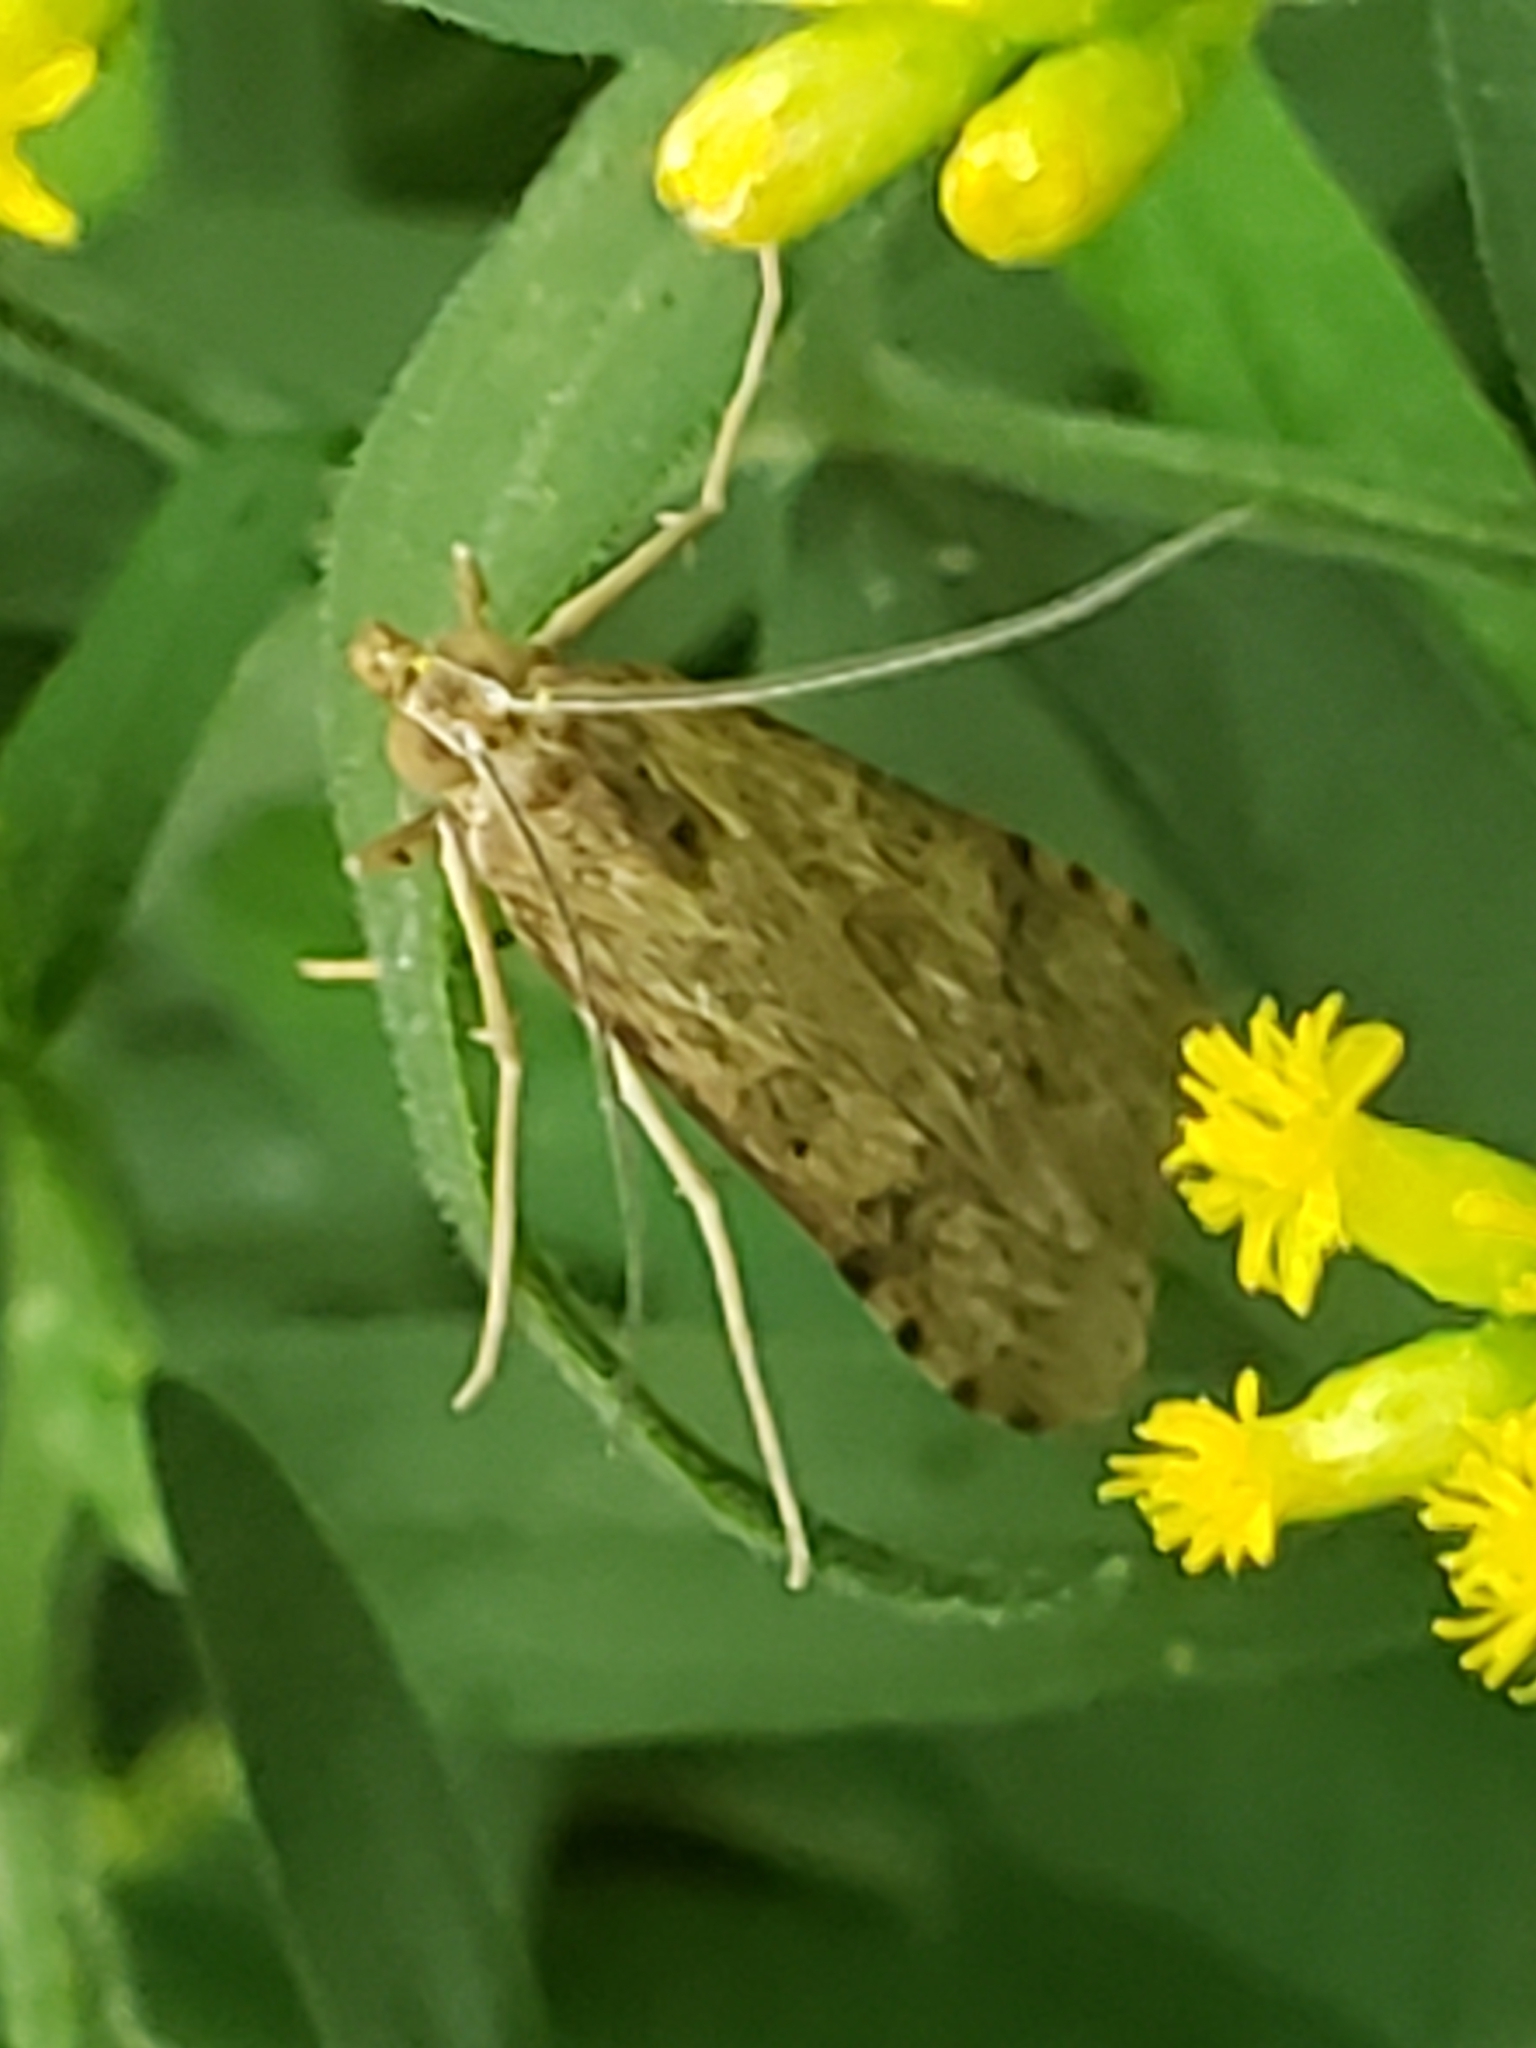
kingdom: Animalia
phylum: Arthropoda
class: Insecta
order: Lepidoptera
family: Crambidae
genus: Nomophila
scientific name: Nomophila nearctica
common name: American rush veneer
